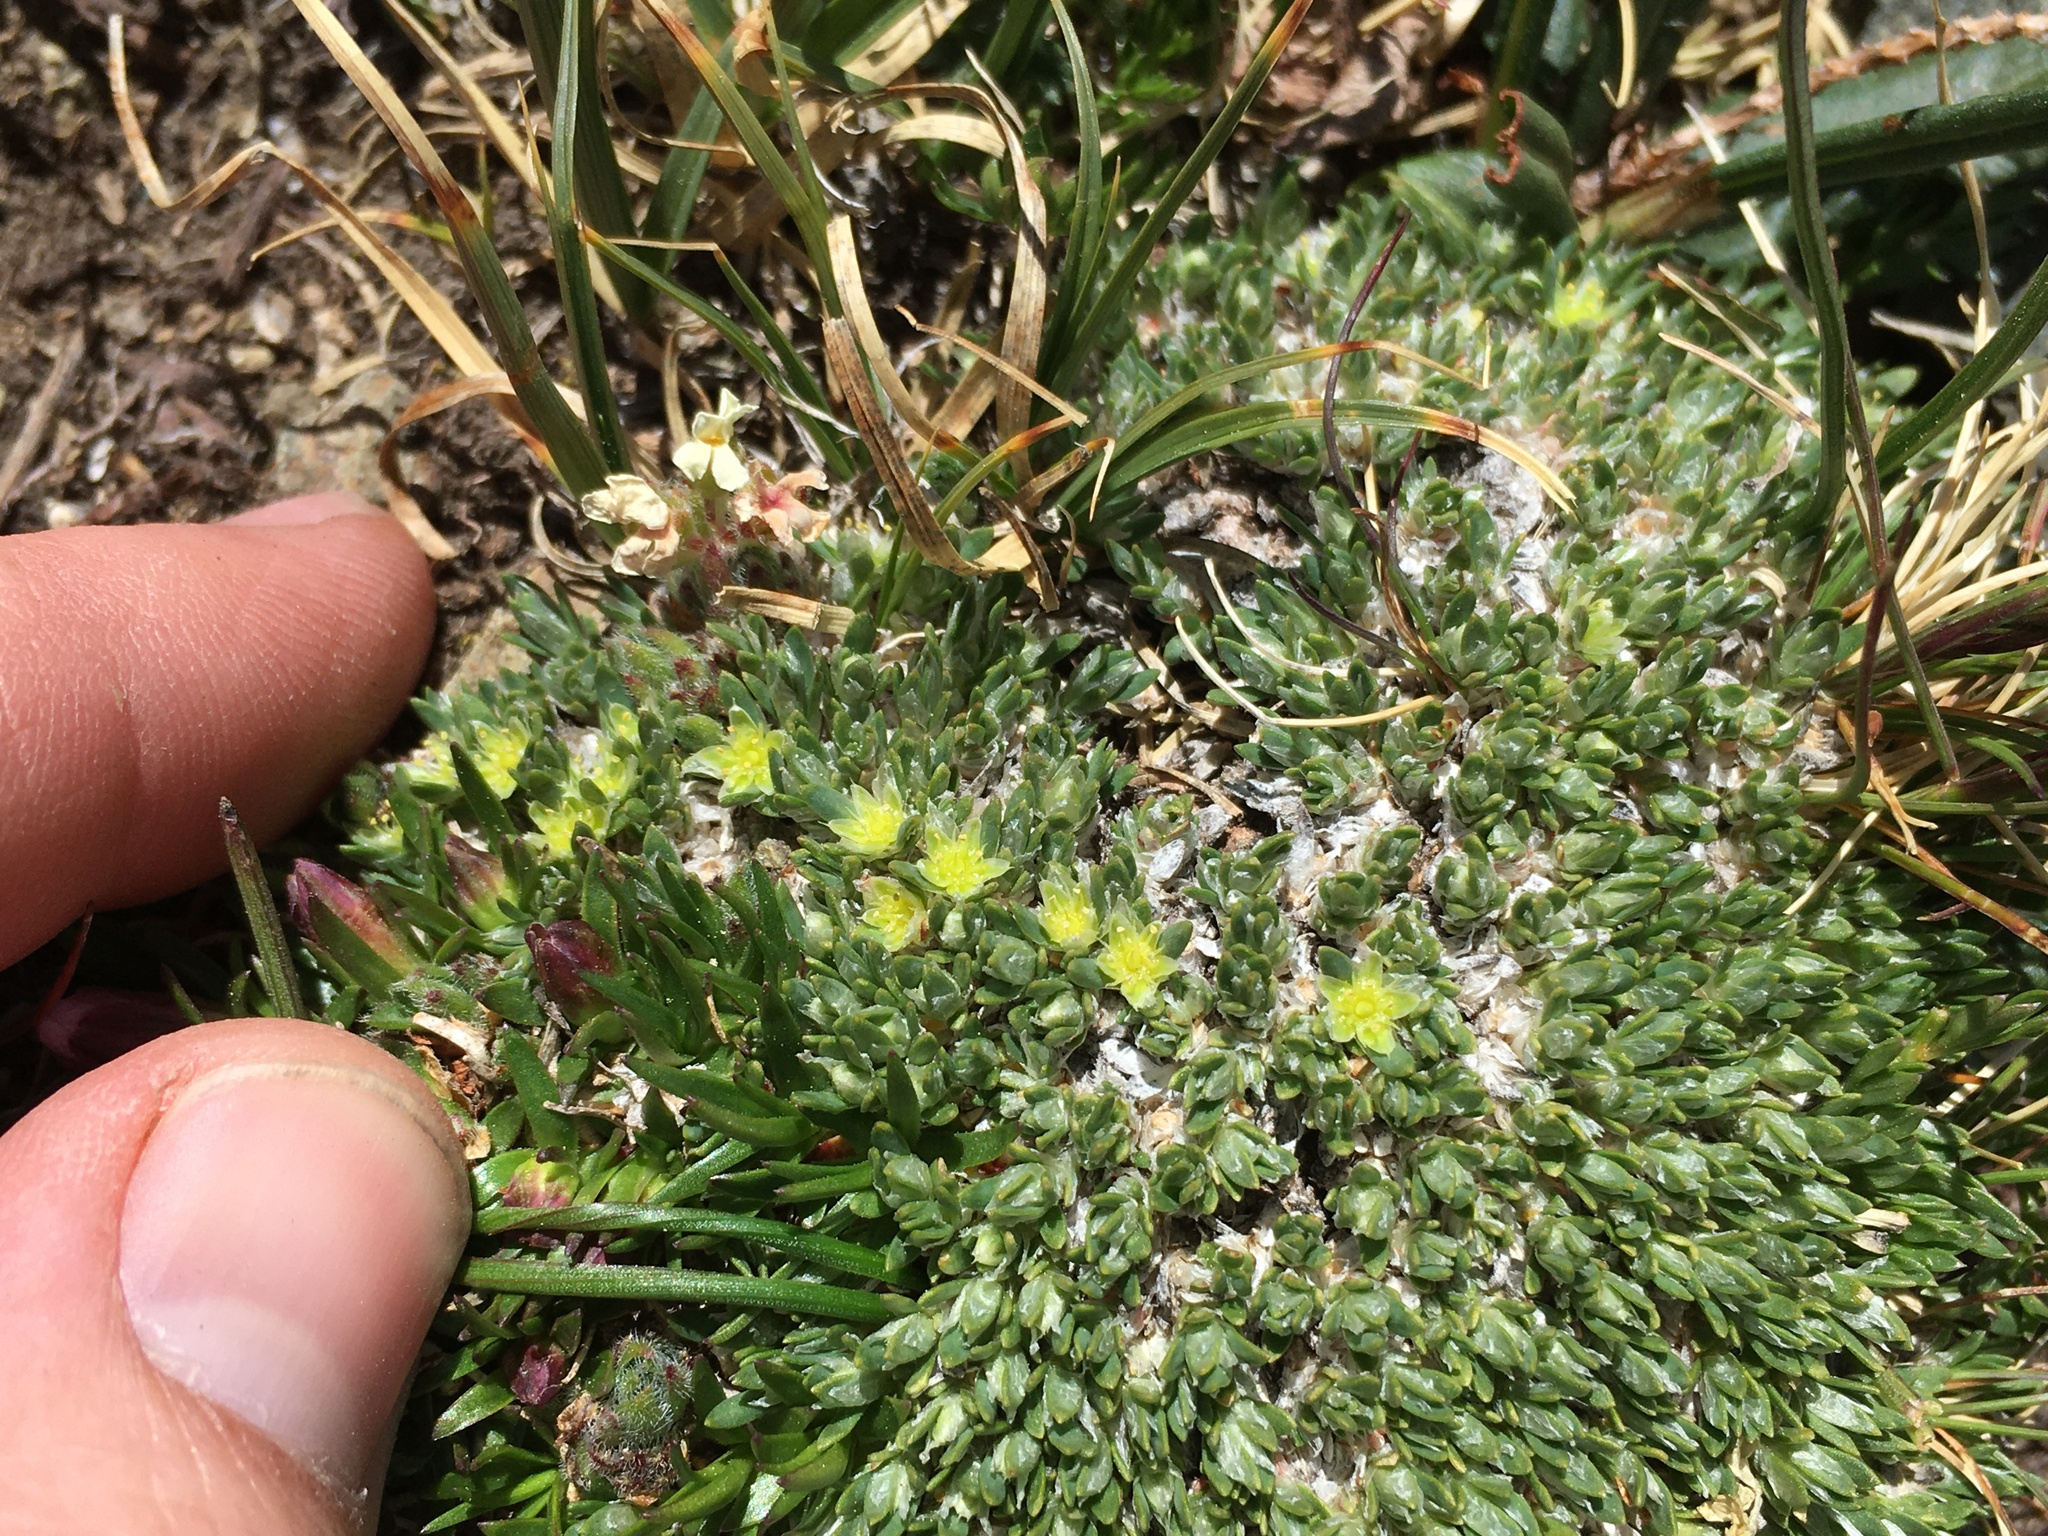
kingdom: Plantae
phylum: Tracheophyta
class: Magnoliopsida
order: Caryophyllales
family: Caryophyllaceae
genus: Paronychia
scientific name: Paronychia pulvinata
